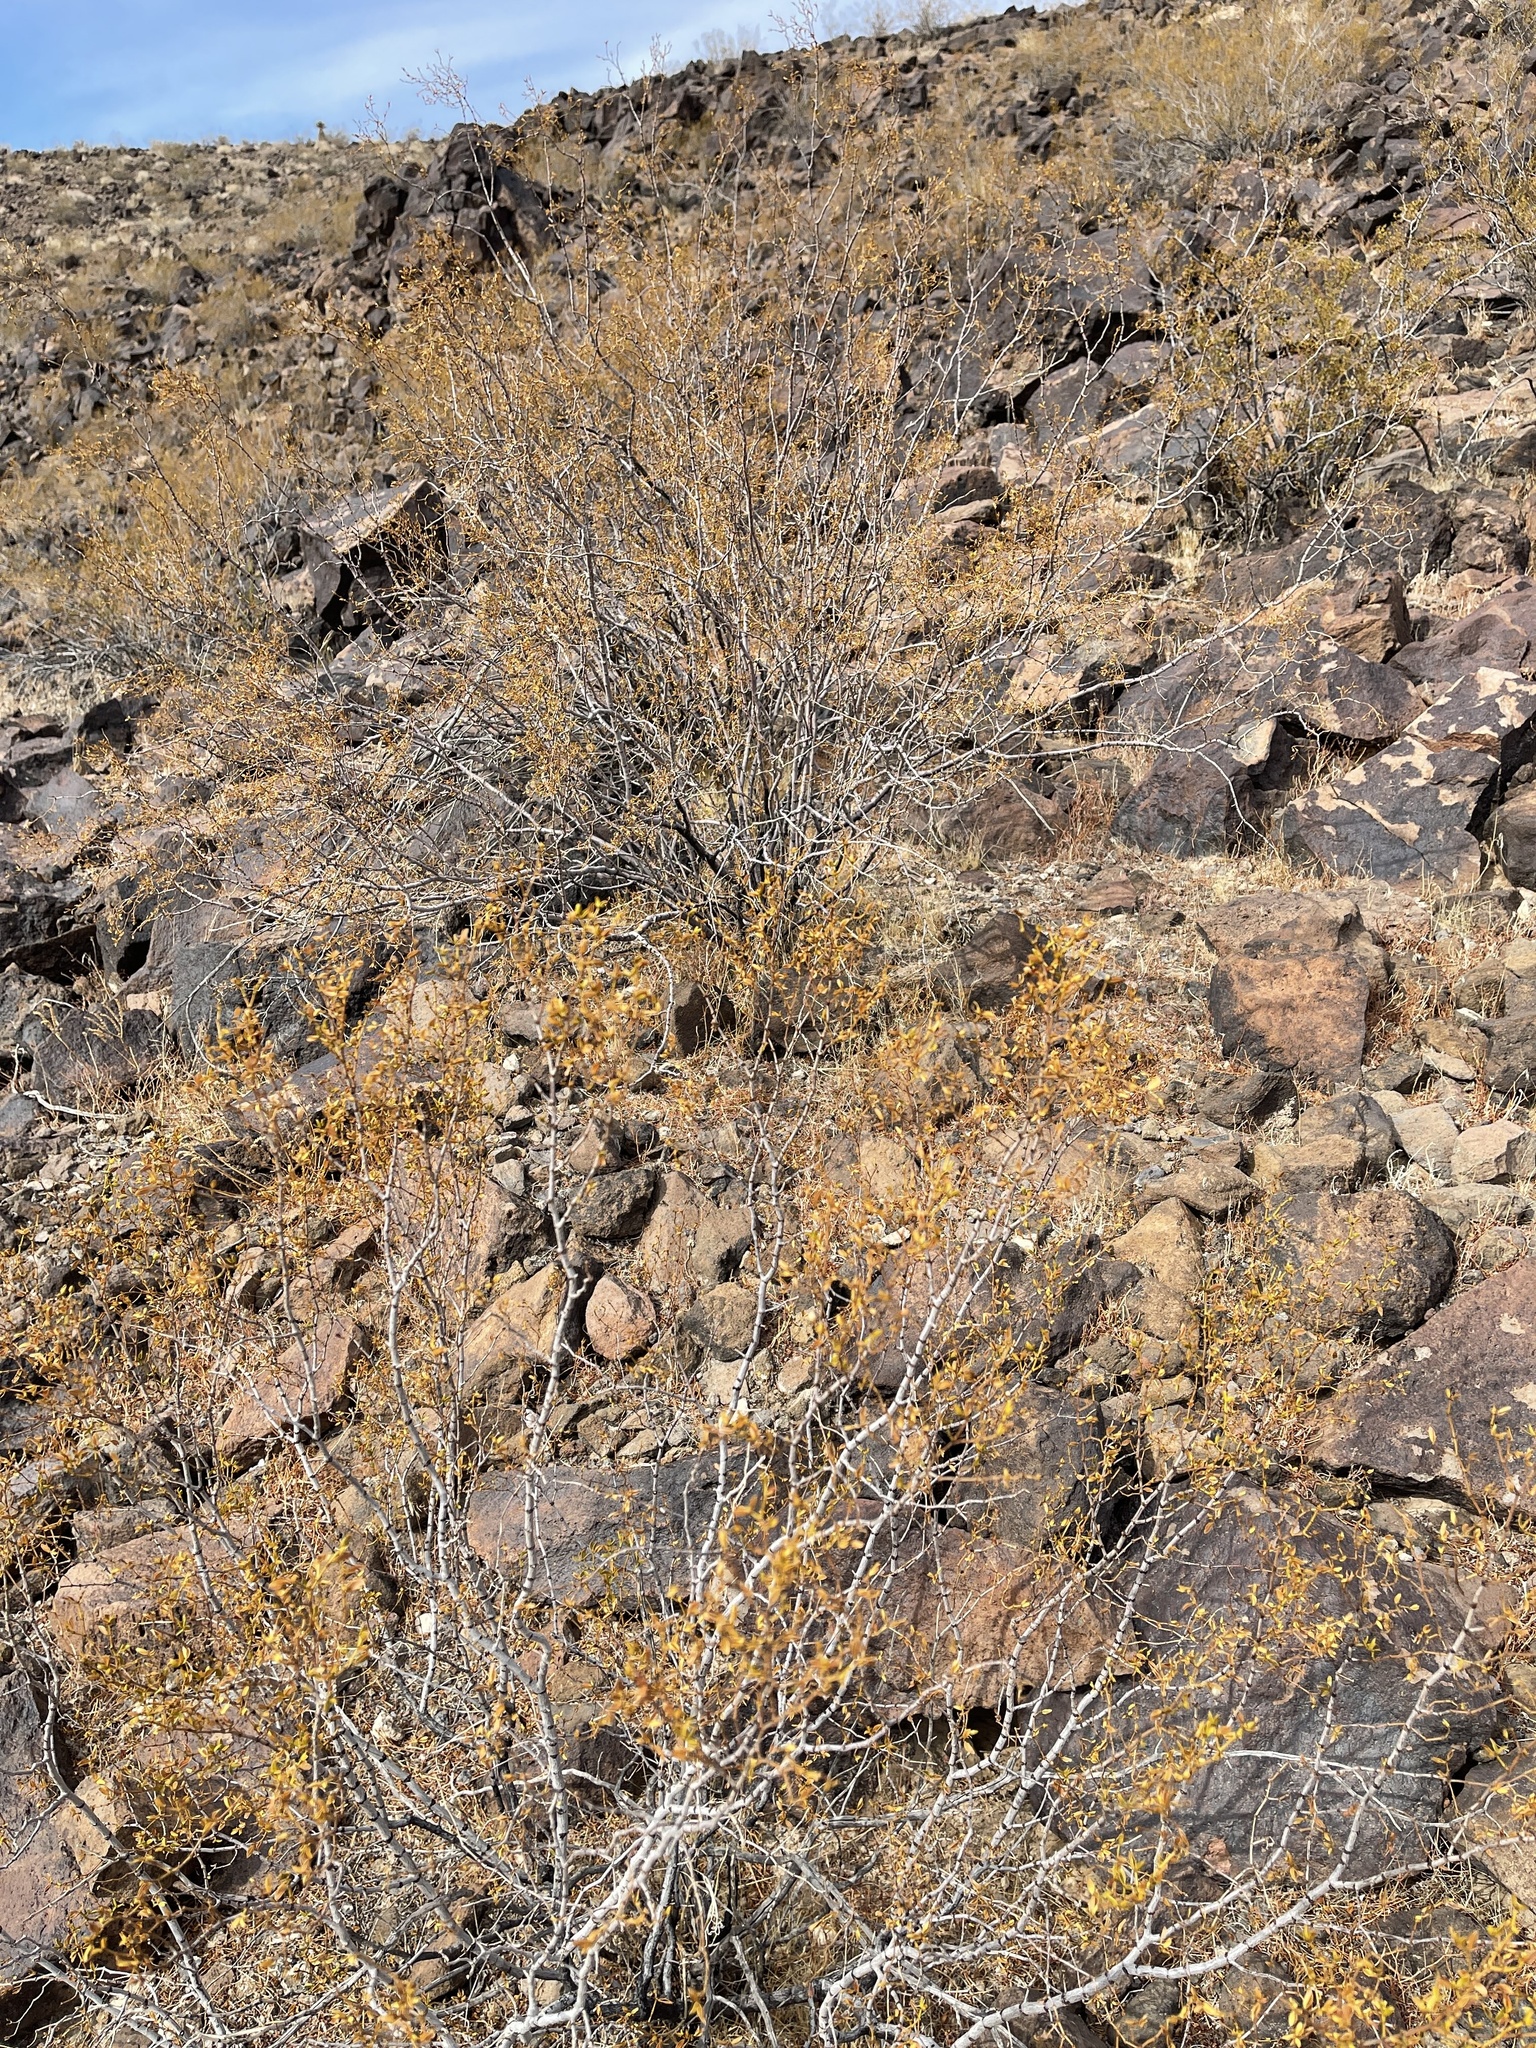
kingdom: Plantae
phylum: Tracheophyta
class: Magnoliopsida
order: Zygophyllales
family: Zygophyllaceae
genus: Larrea
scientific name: Larrea tridentata
